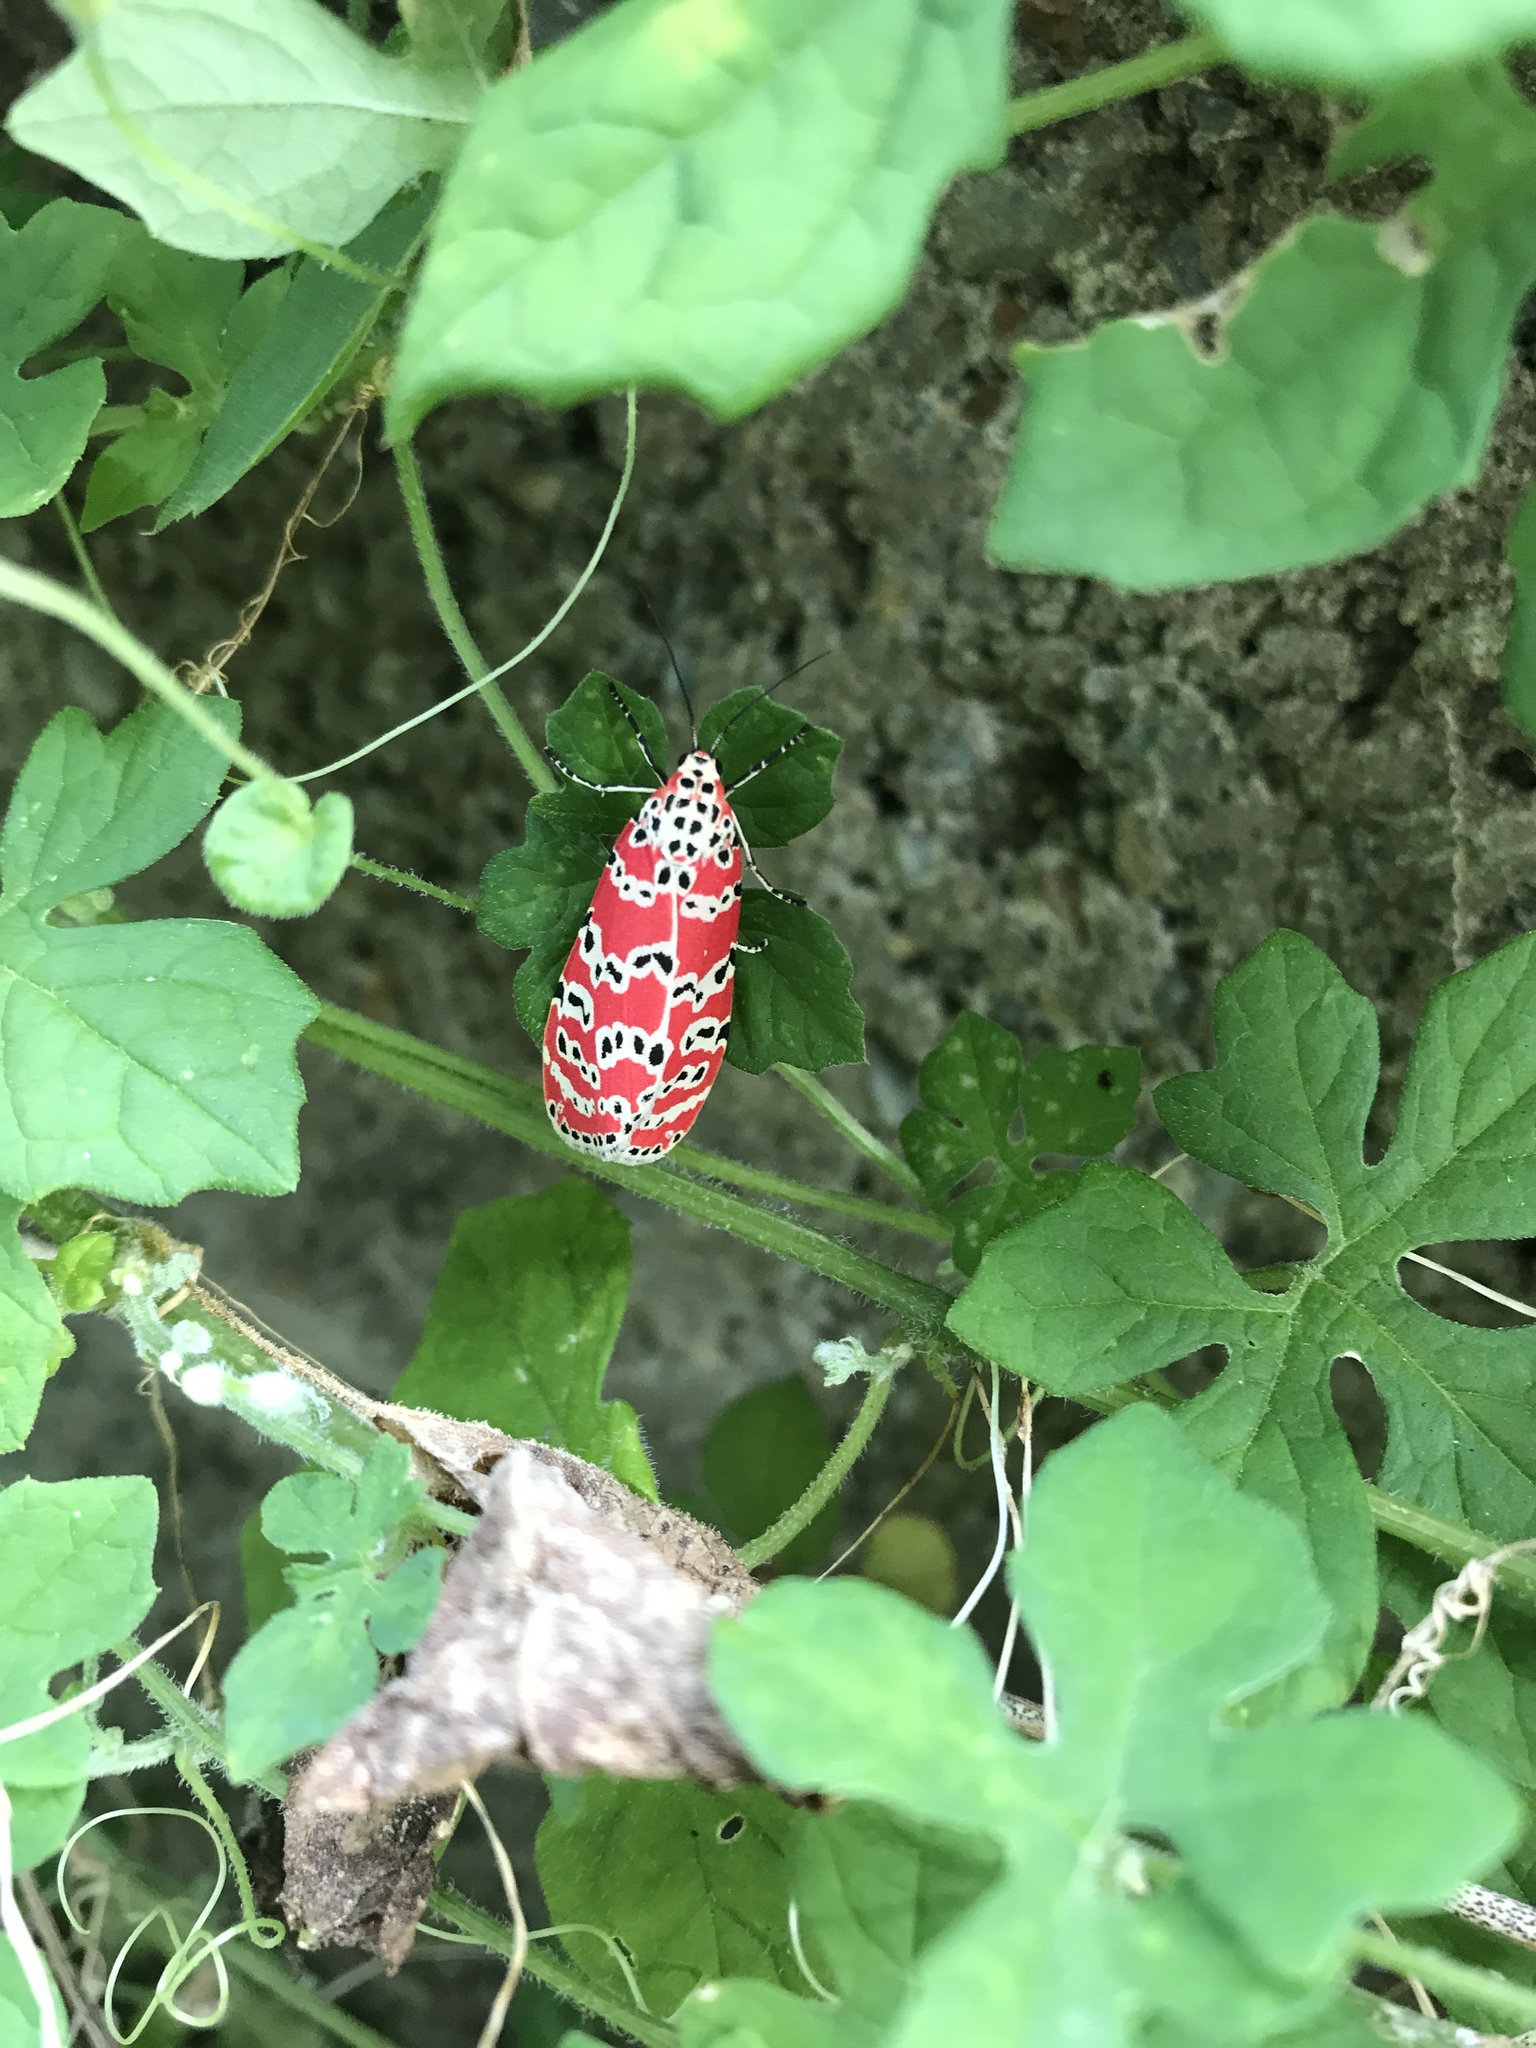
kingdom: Animalia
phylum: Arthropoda
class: Insecta
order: Lepidoptera
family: Erebidae
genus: Utetheisa
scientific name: Utetheisa ornatrix
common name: Beautiful utetheisa
